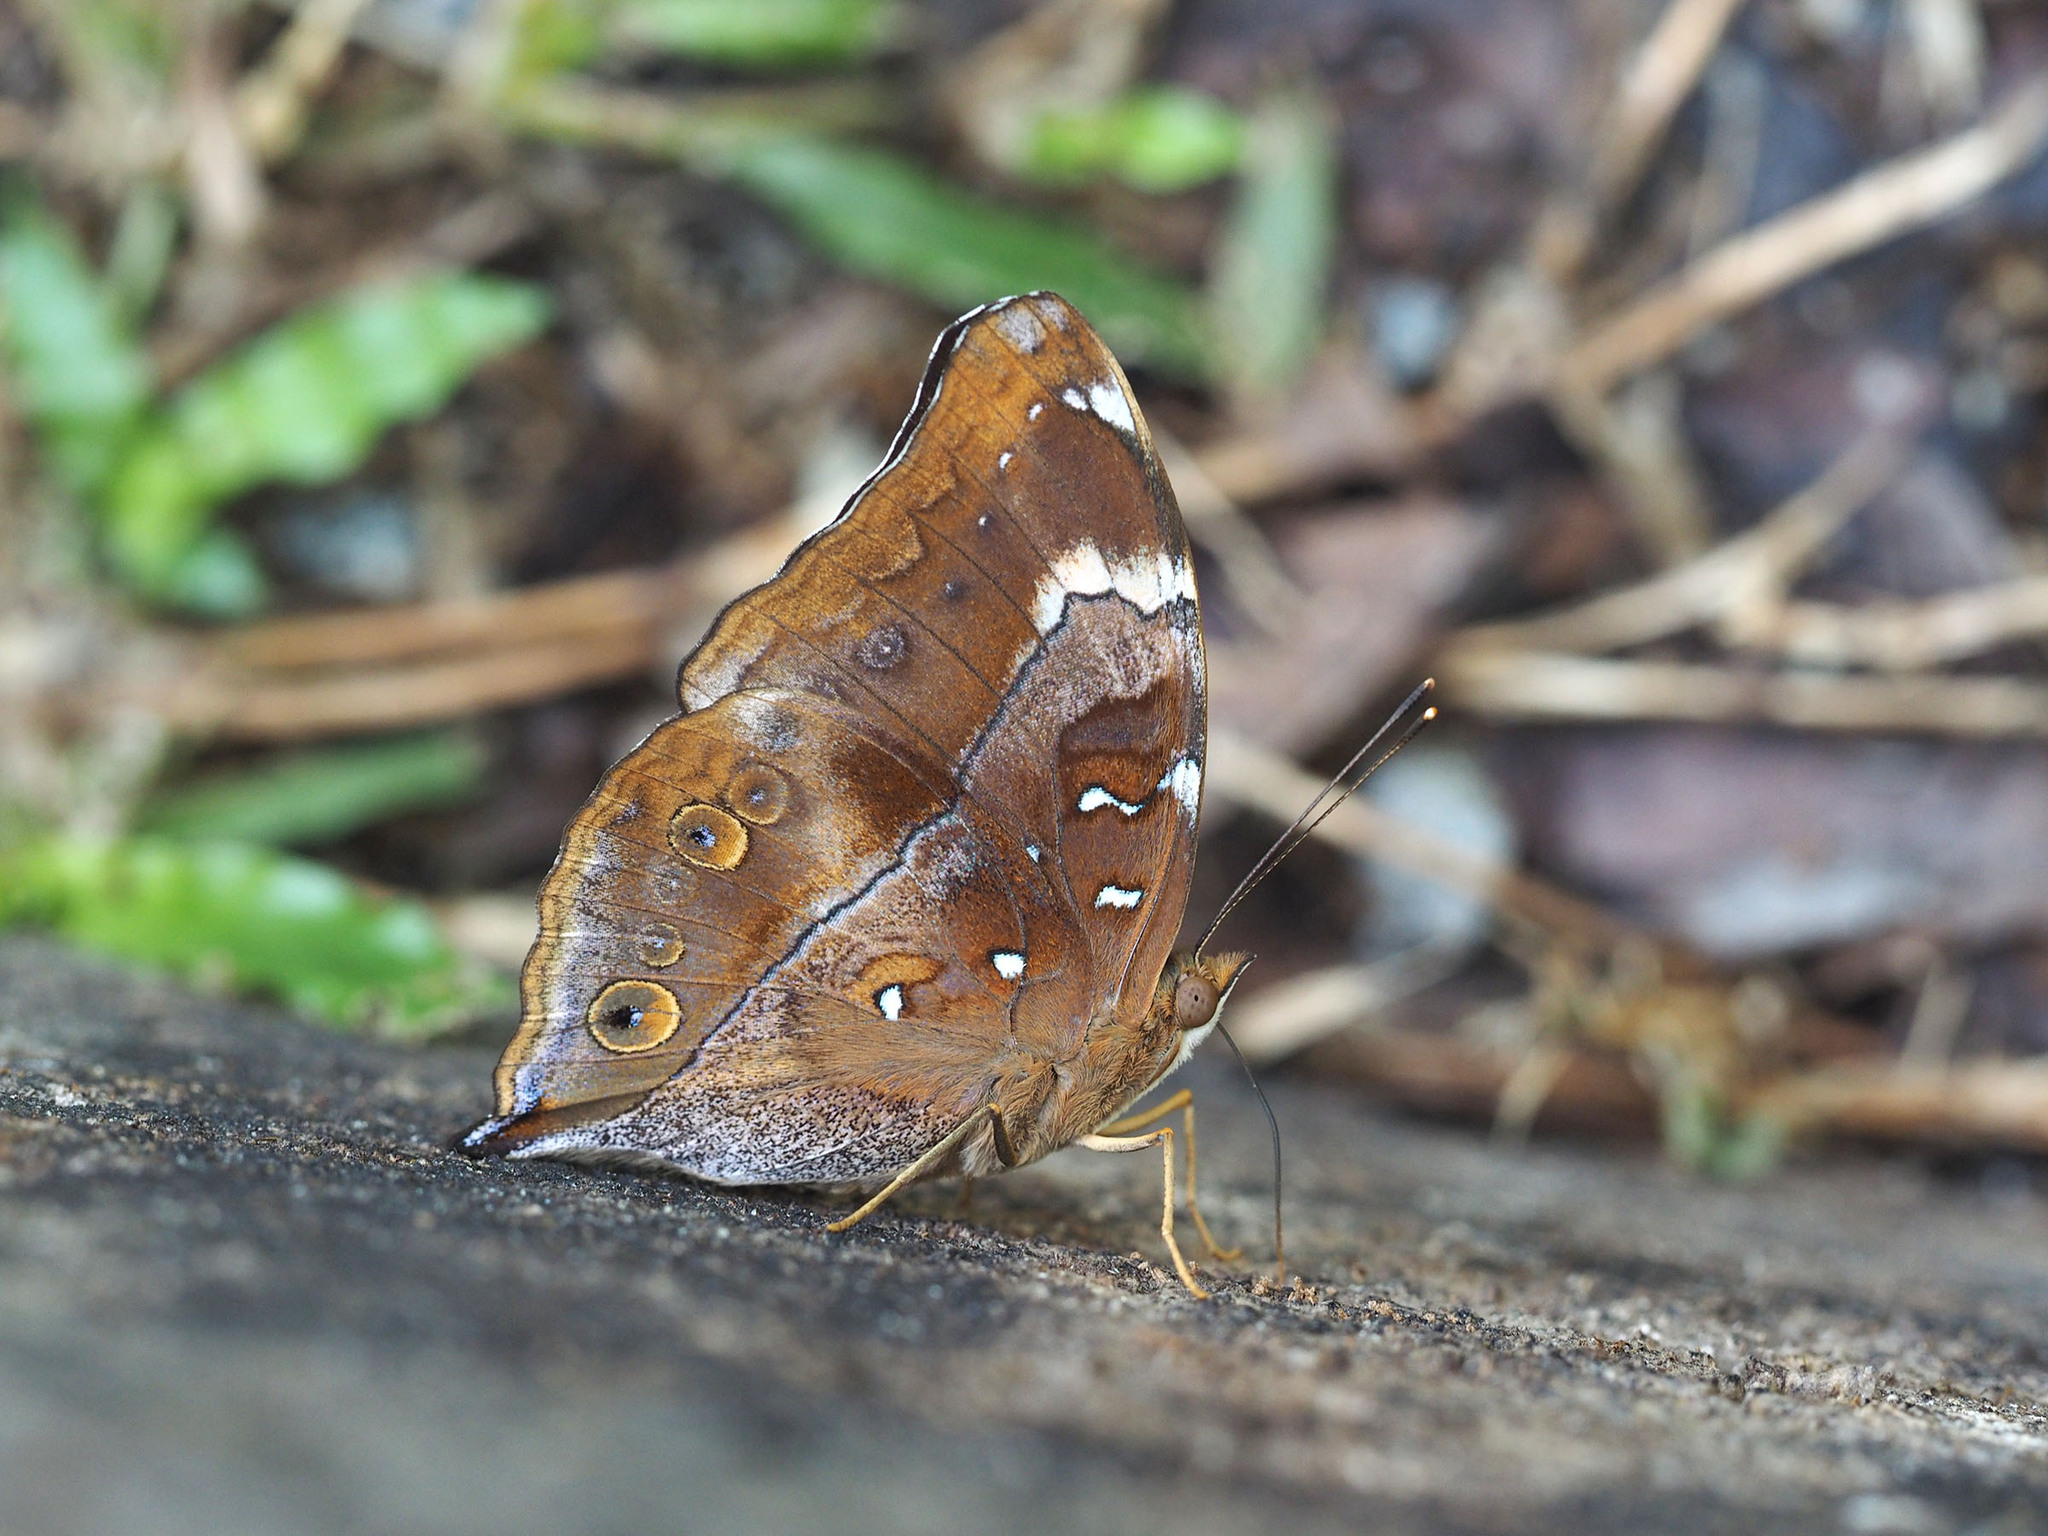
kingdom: Animalia
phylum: Arthropoda
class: Insecta
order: Lepidoptera
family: Nymphalidae
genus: Doleschallia
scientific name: Doleschallia bisaltide
